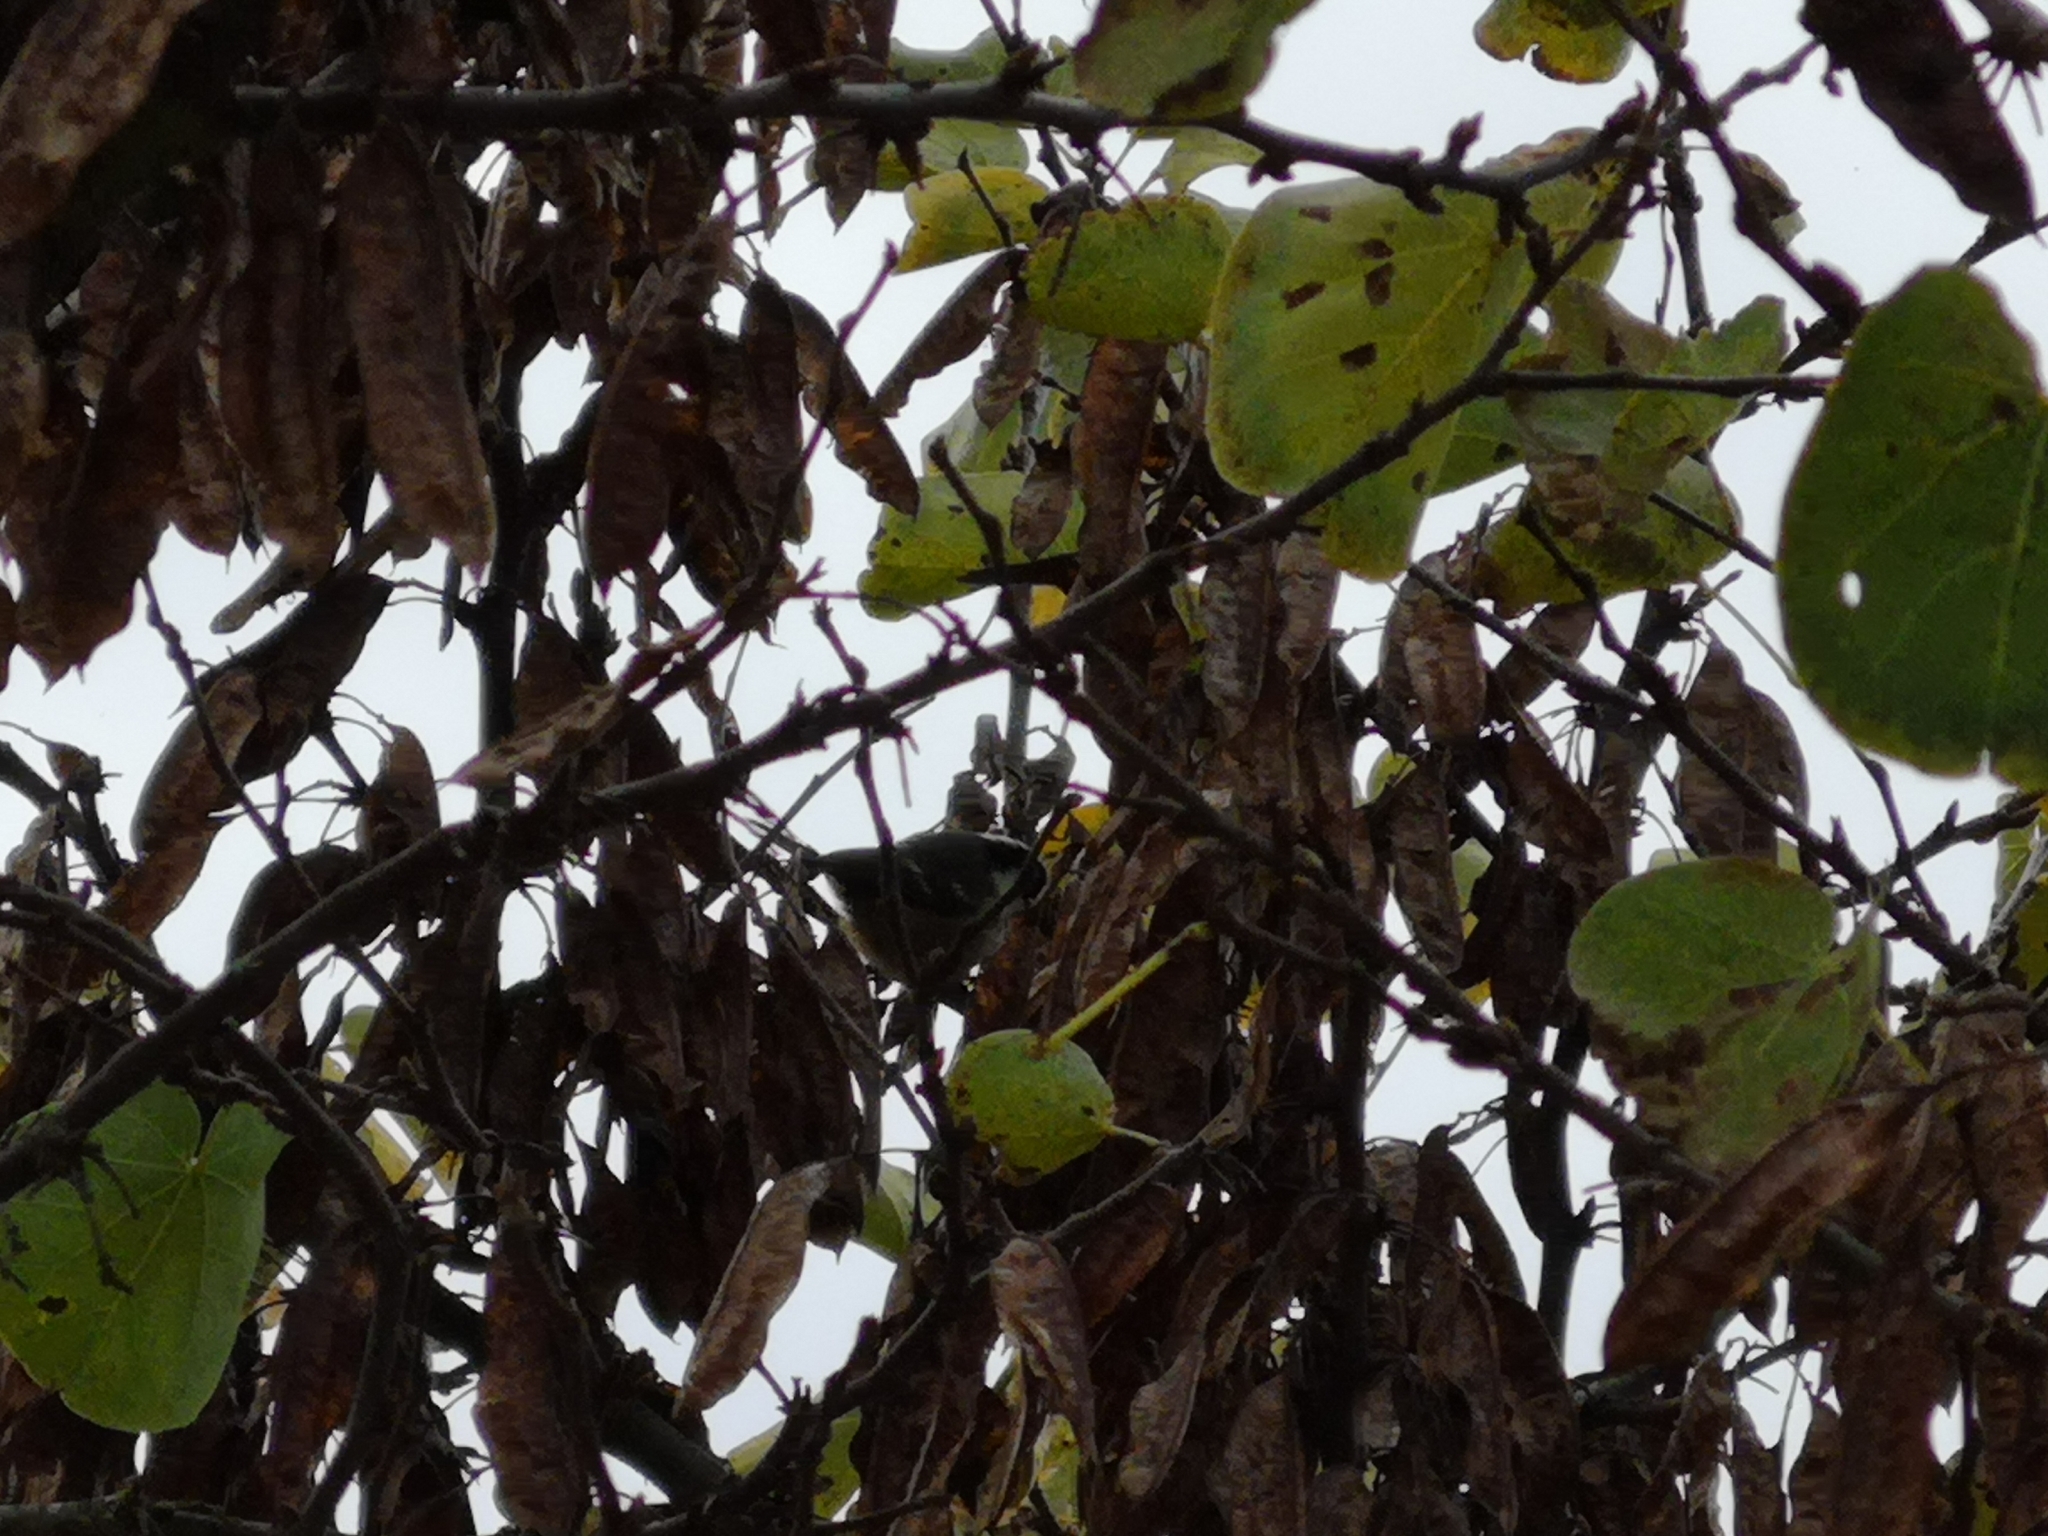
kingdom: Animalia
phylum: Chordata
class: Aves
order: Passeriformes
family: Paridae
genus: Periparus
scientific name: Periparus ater
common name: Coal tit
